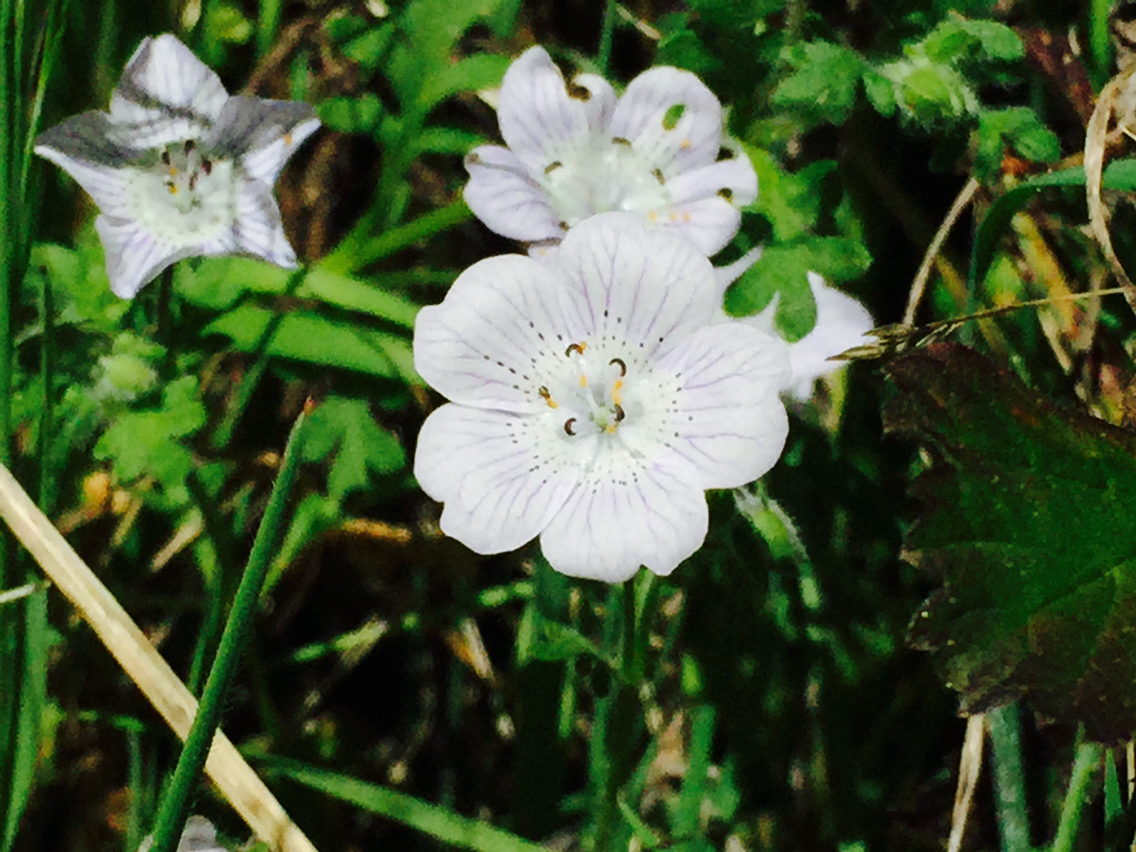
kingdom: Plantae
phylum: Tracheophyta
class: Magnoliopsida
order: Boraginales
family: Hydrophyllaceae
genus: Nemophila
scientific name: Nemophila menziesii
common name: Baby's-blue-eyes
